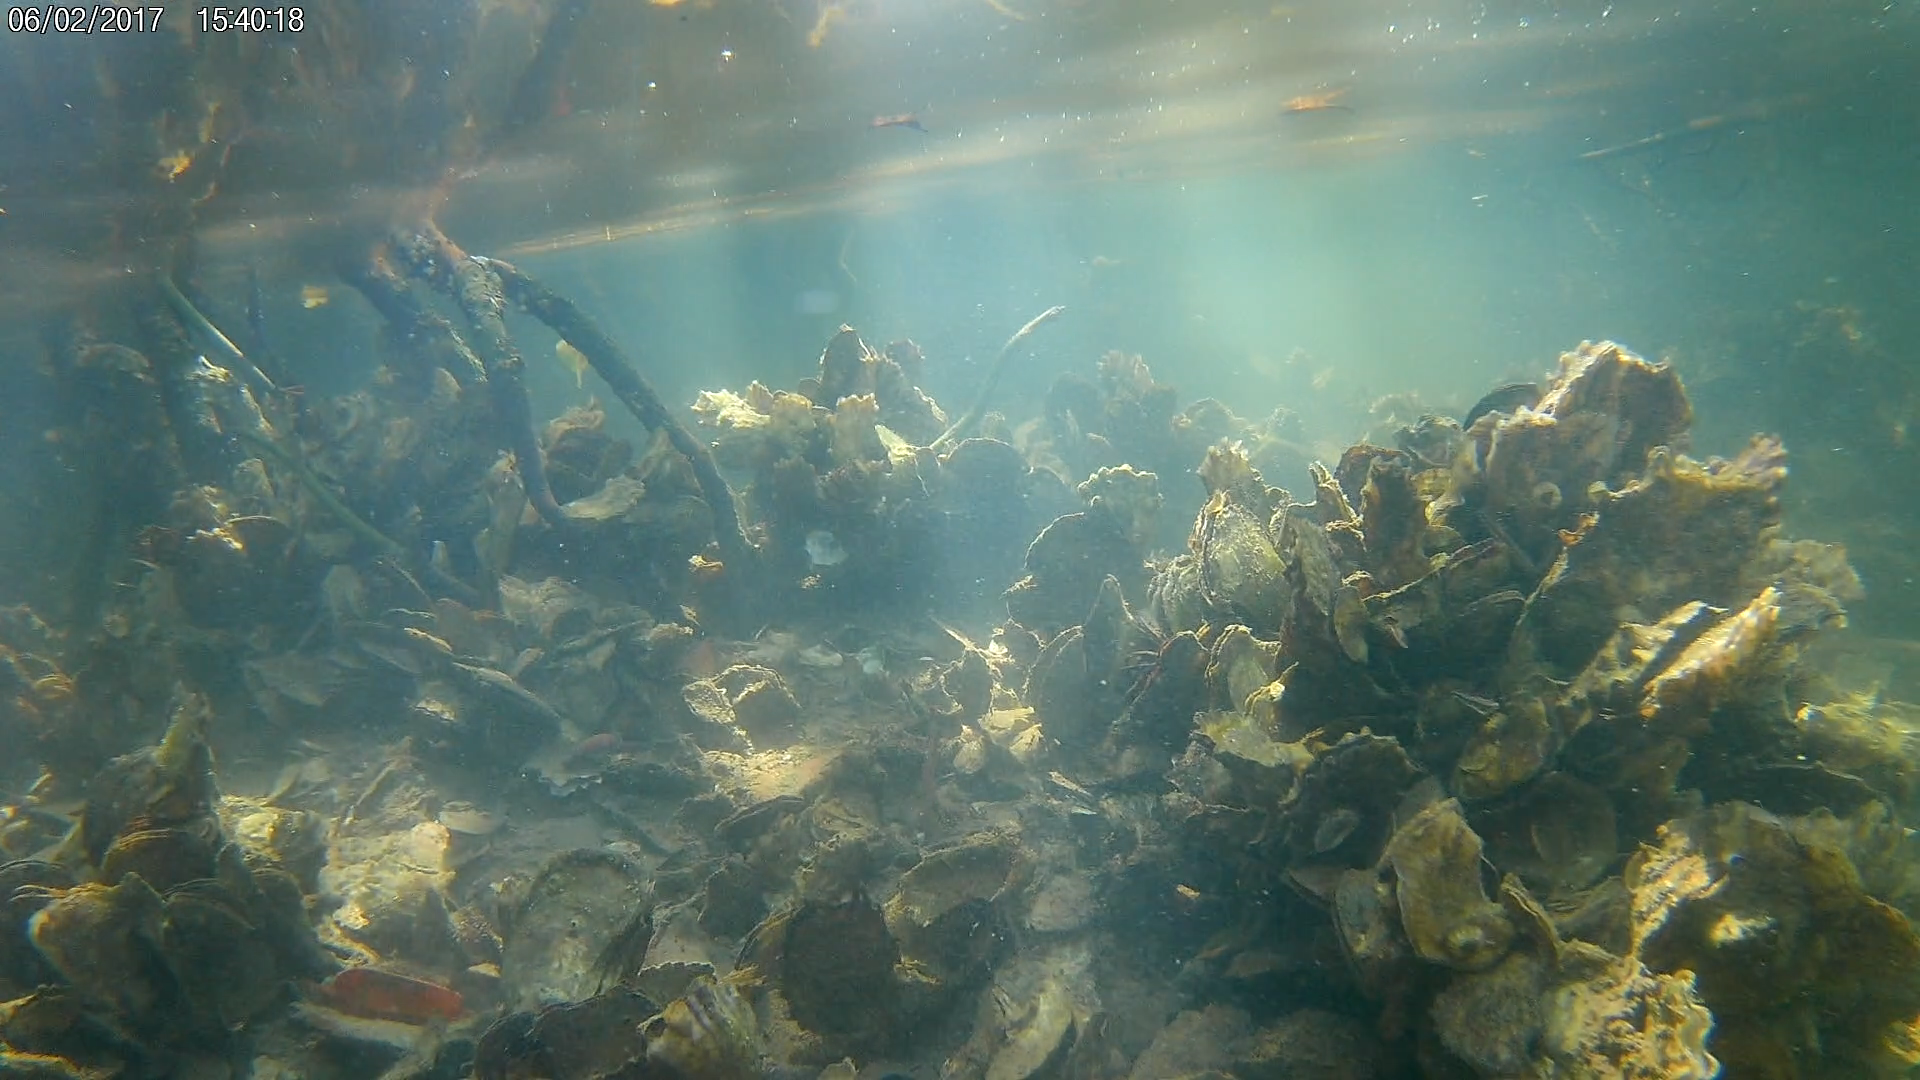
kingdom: Animalia
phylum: Mollusca
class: Bivalvia
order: Ostreida
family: Ostreidae
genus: Crassostrea
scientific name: Crassostrea virginica
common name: American oyster
